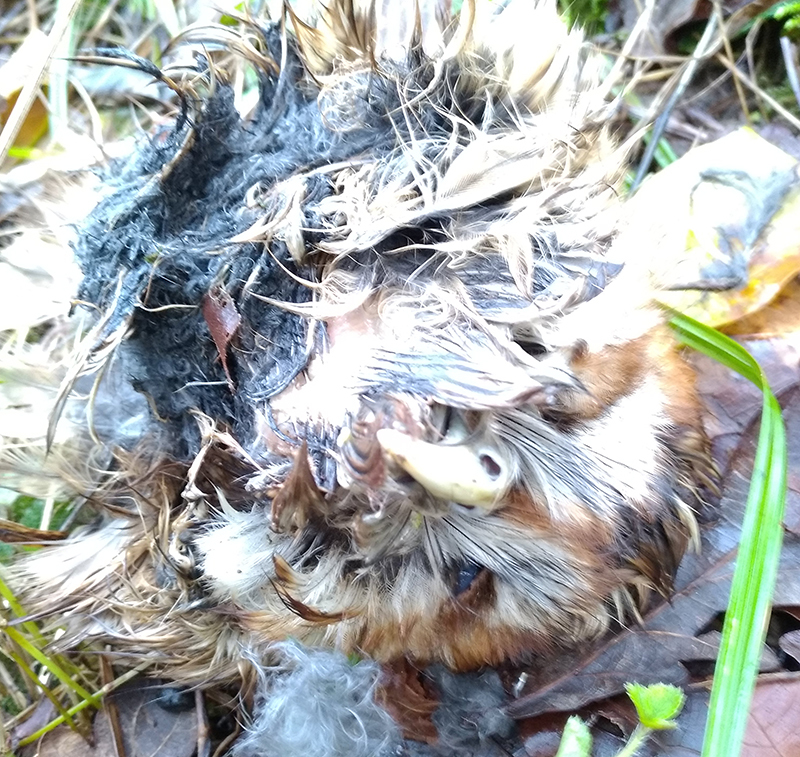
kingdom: Animalia
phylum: Chordata
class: Aves
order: Strigiformes
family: Strigidae
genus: Strix
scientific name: Strix aluco
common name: Tawny owl
